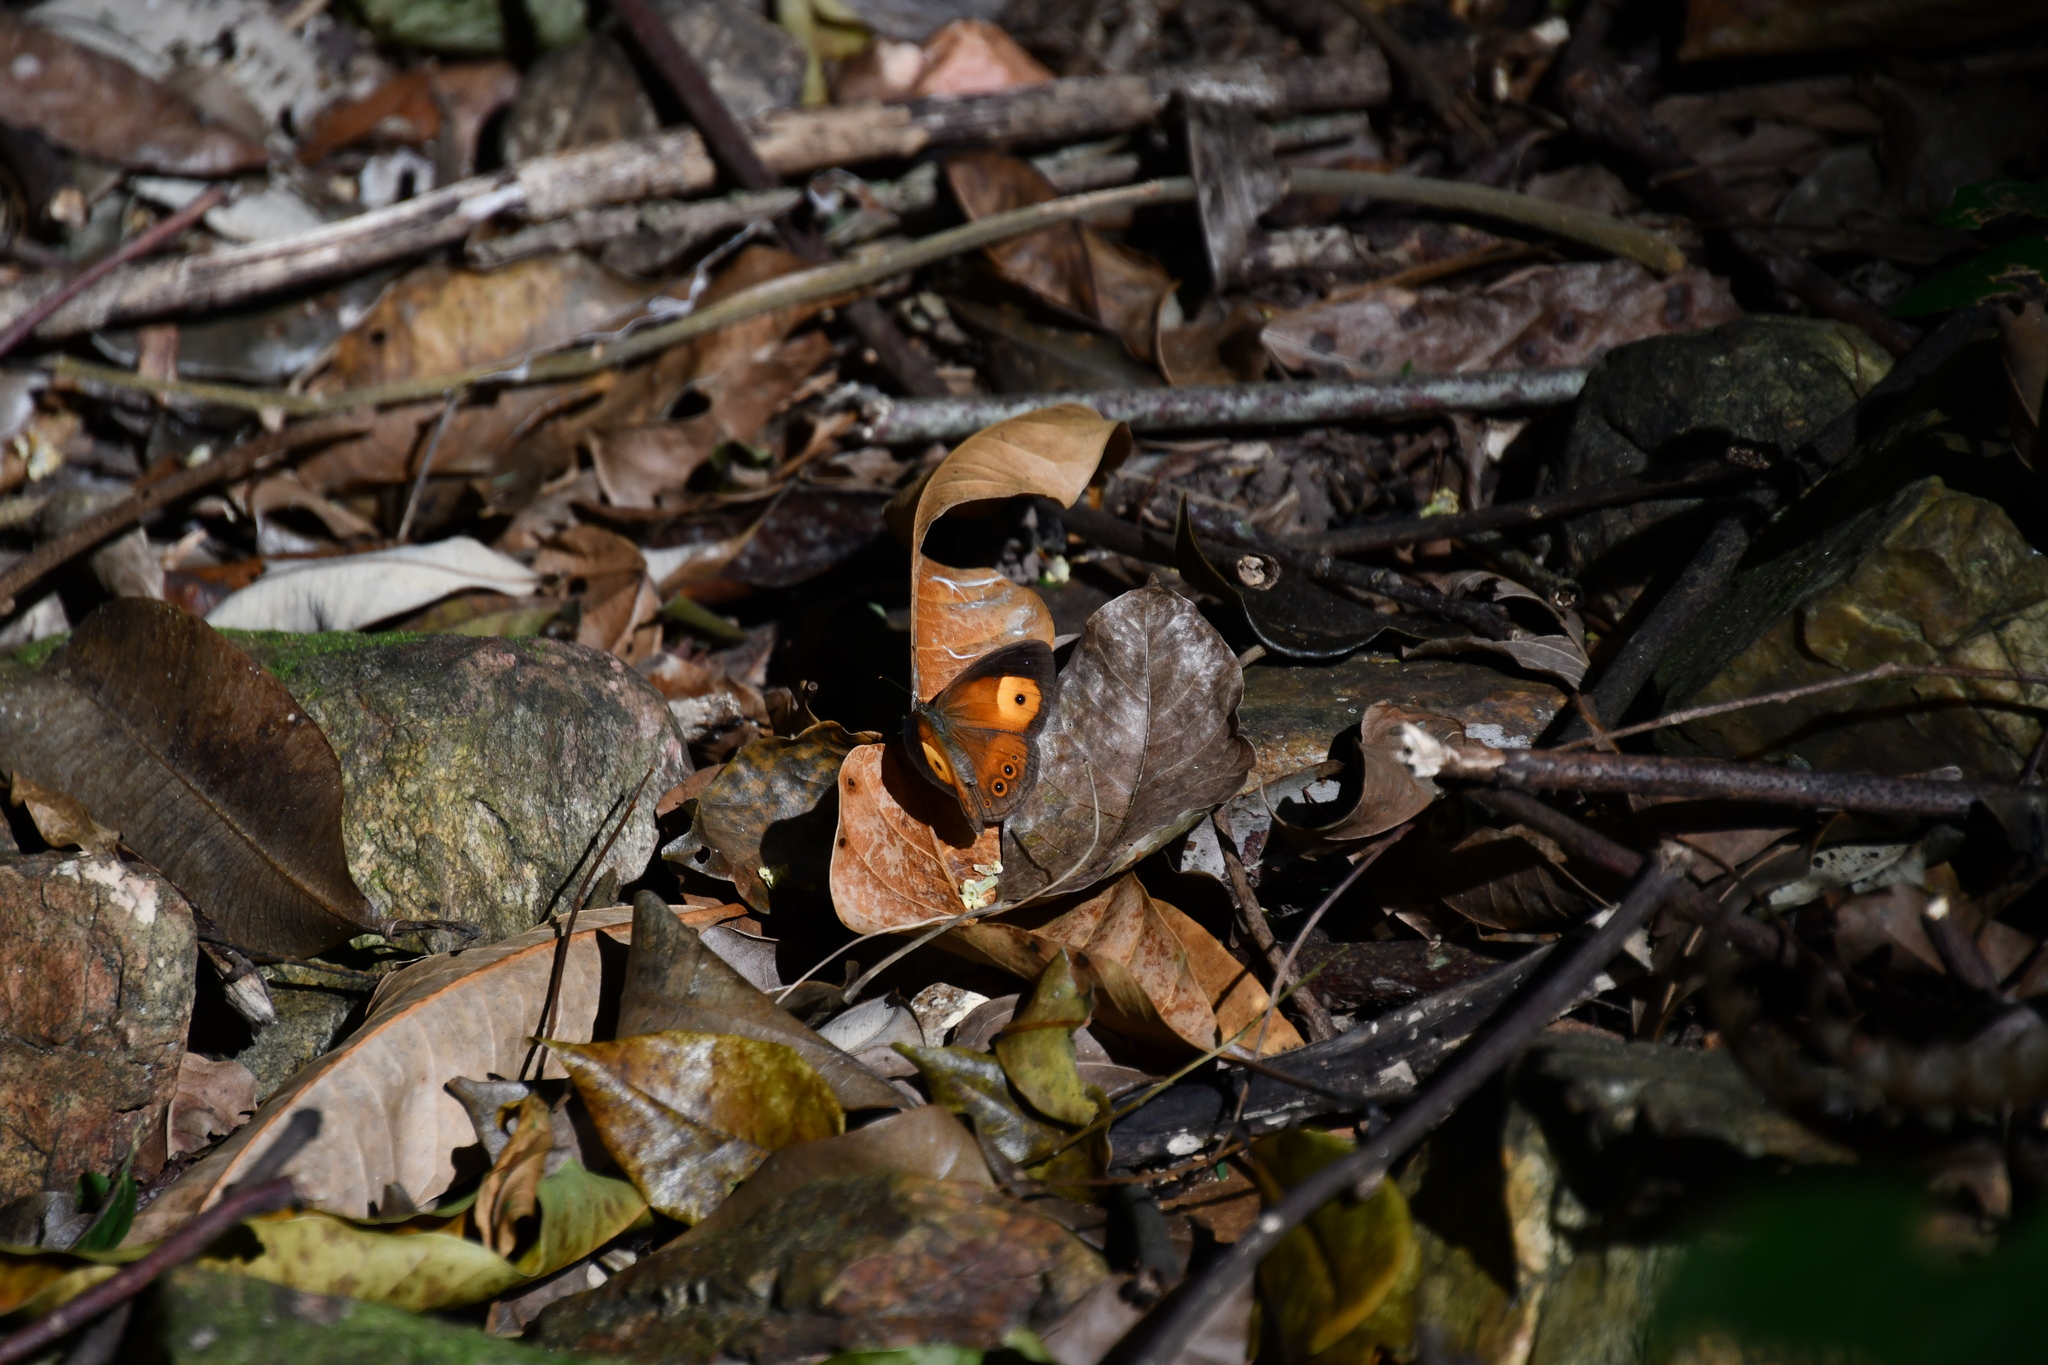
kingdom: Animalia
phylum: Arthropoda
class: Insecta
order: Lepidoptera
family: Nymphalidae
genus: Mycalesis
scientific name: Mycalesis terminus
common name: Orange bushbrown
